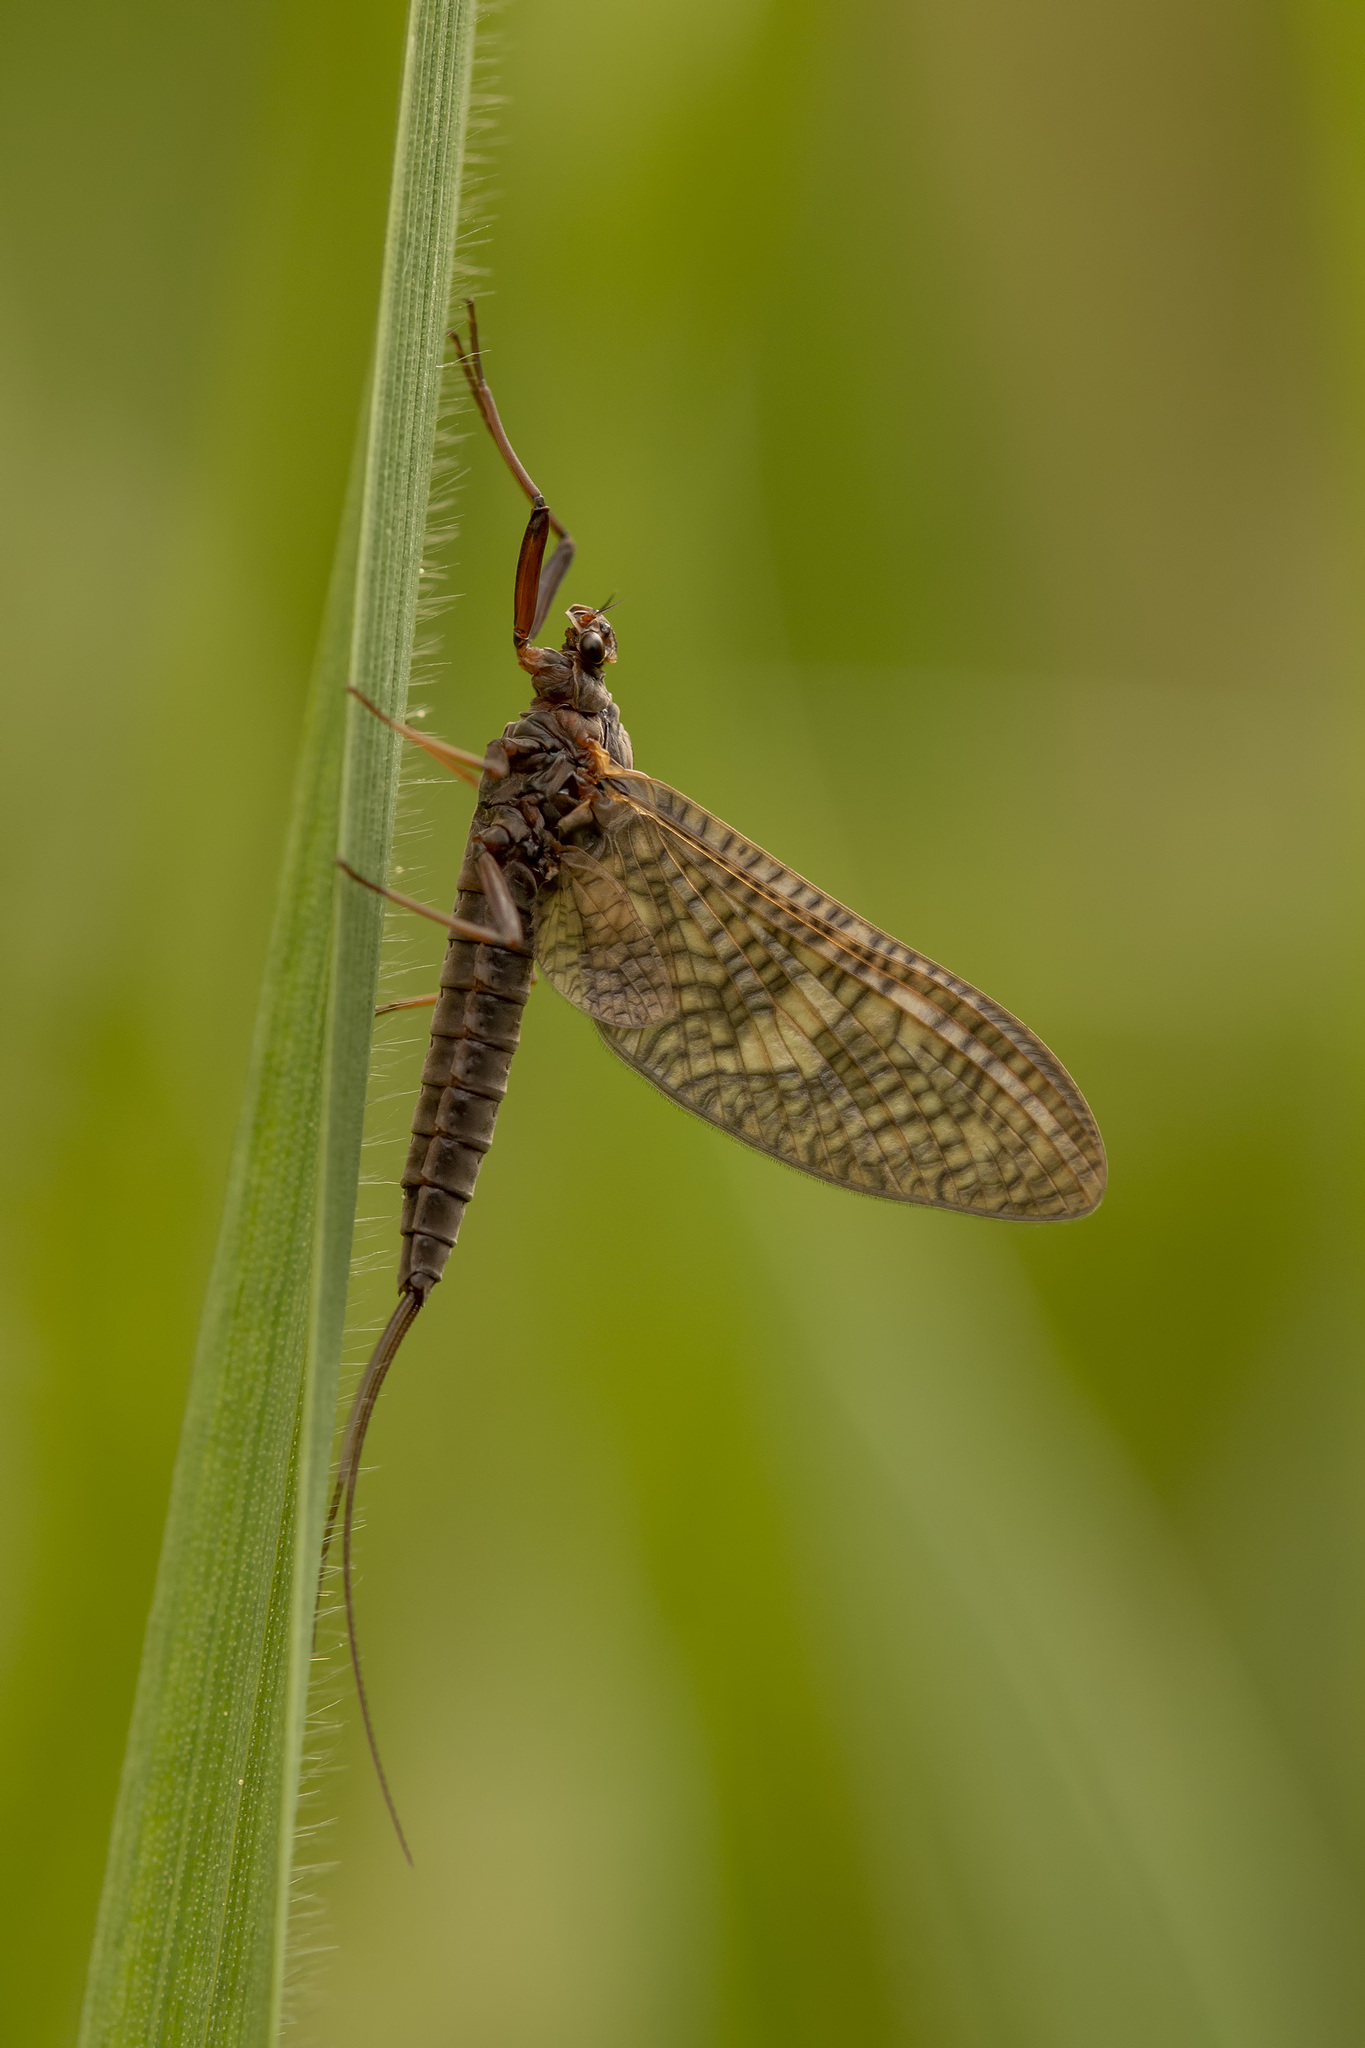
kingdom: Animalia
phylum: Arthropoda
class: Insecta
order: Ephemeroptera
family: Leptophlebiidae
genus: Paraleptophlebia
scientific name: Paraleptophlebia submarginata
